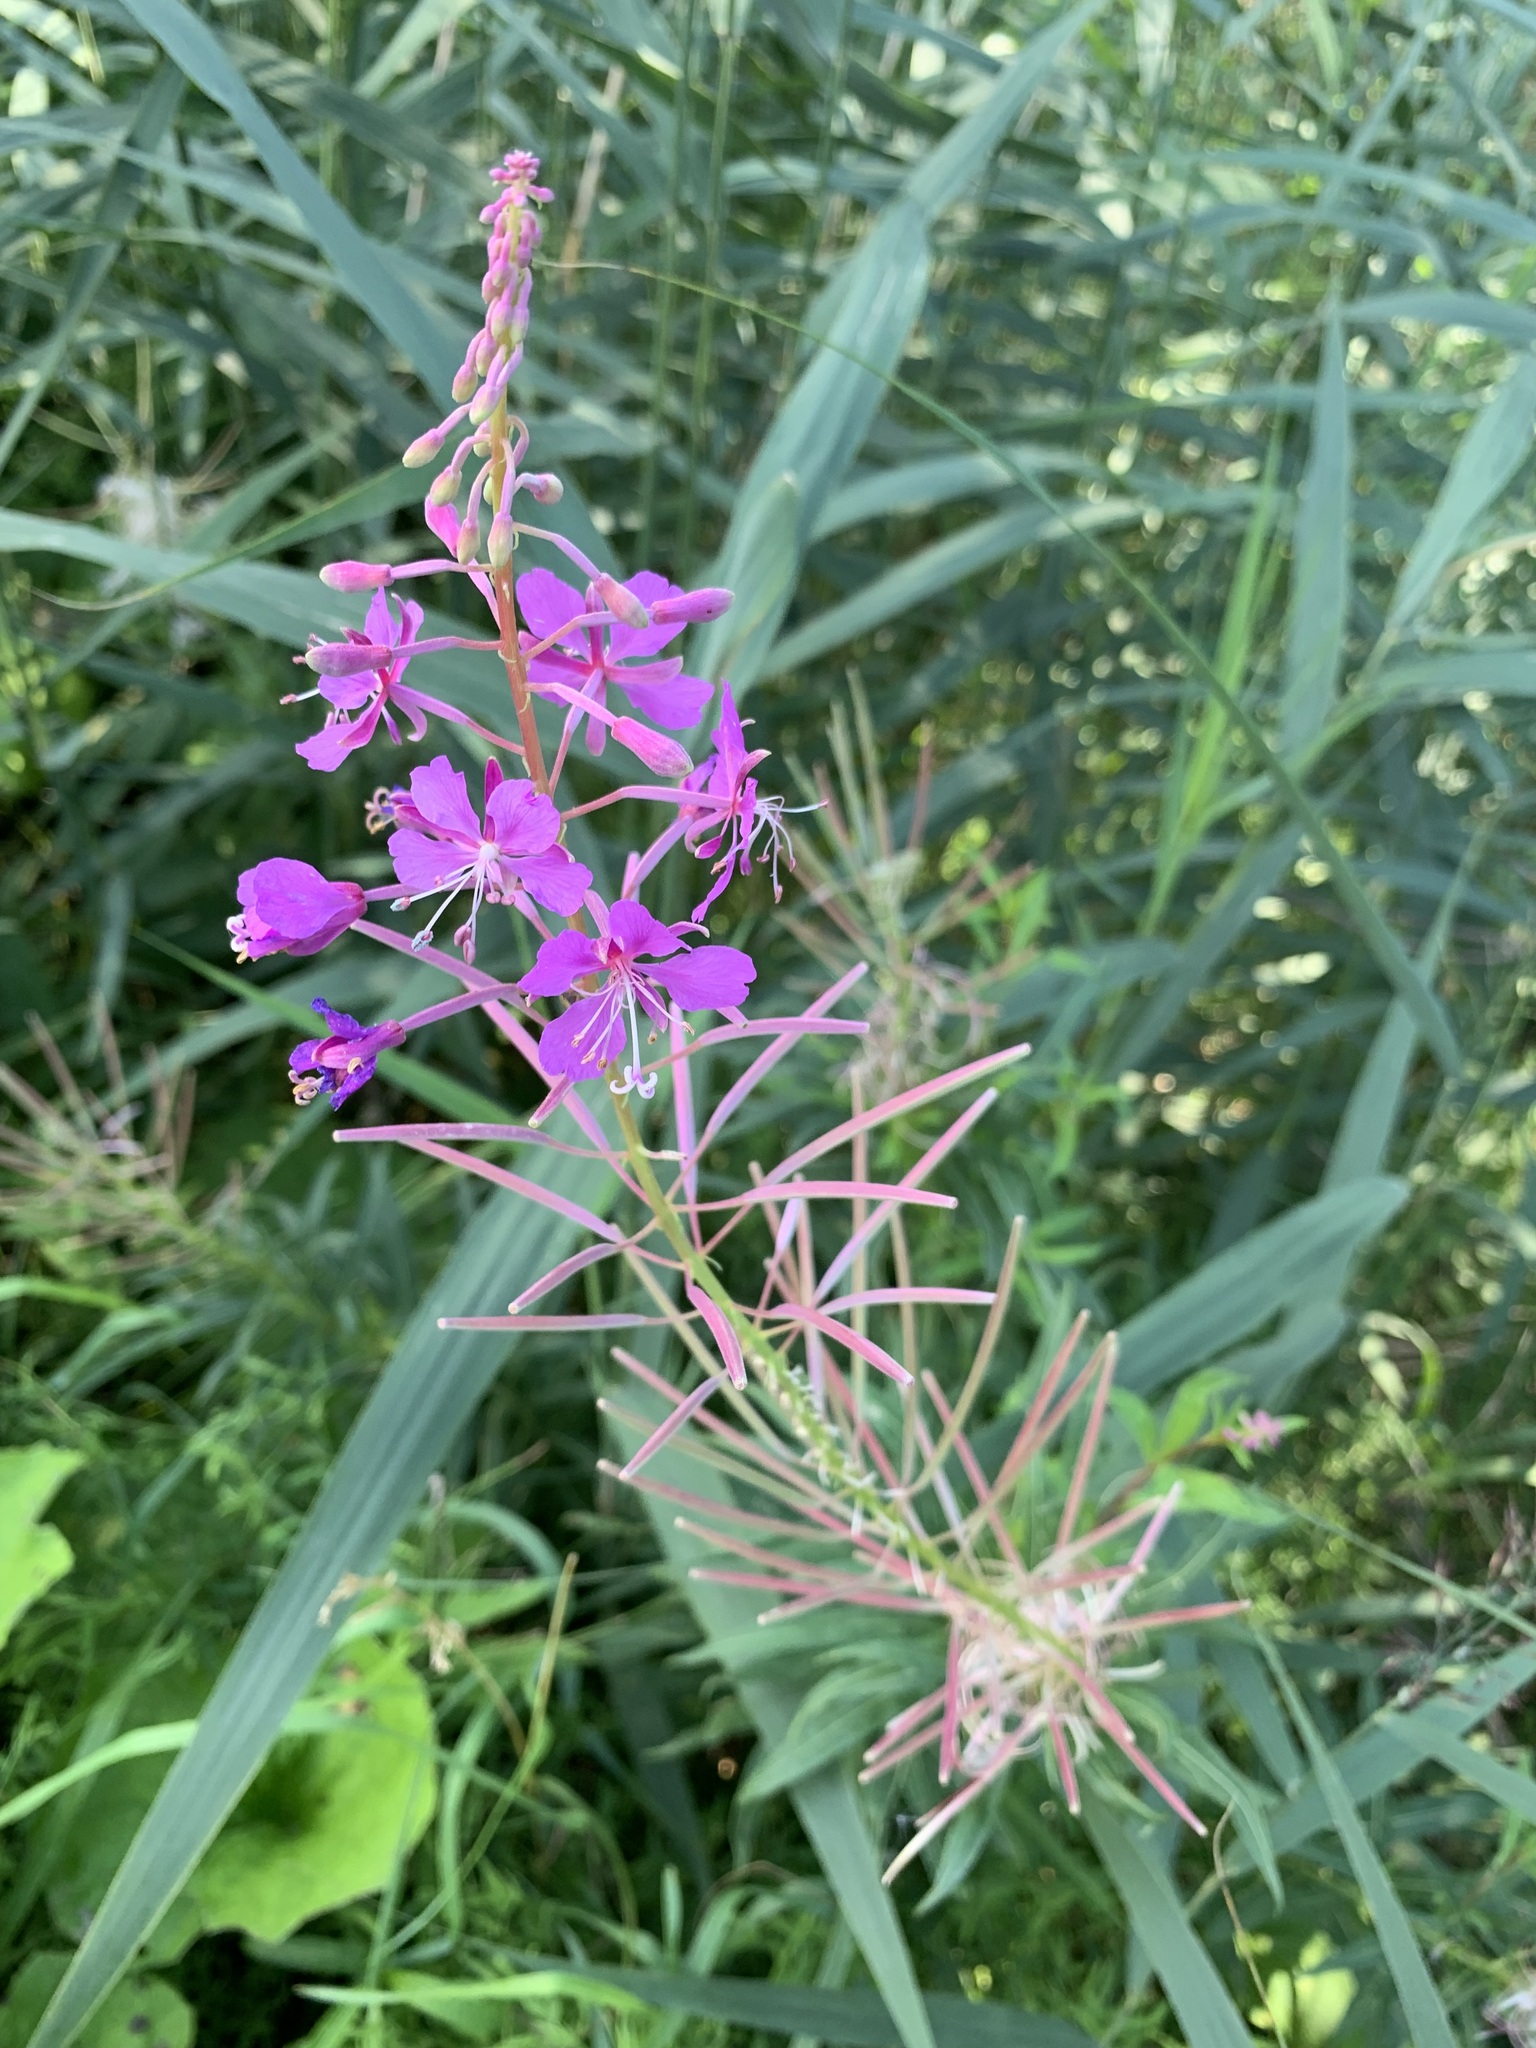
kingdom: Plantae
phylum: Tracheophyta
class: Magnoliopsida
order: Myrtales
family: Onagraceae
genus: Chamaenerion
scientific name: Chamaenerion angustifolium
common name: Fireweed
